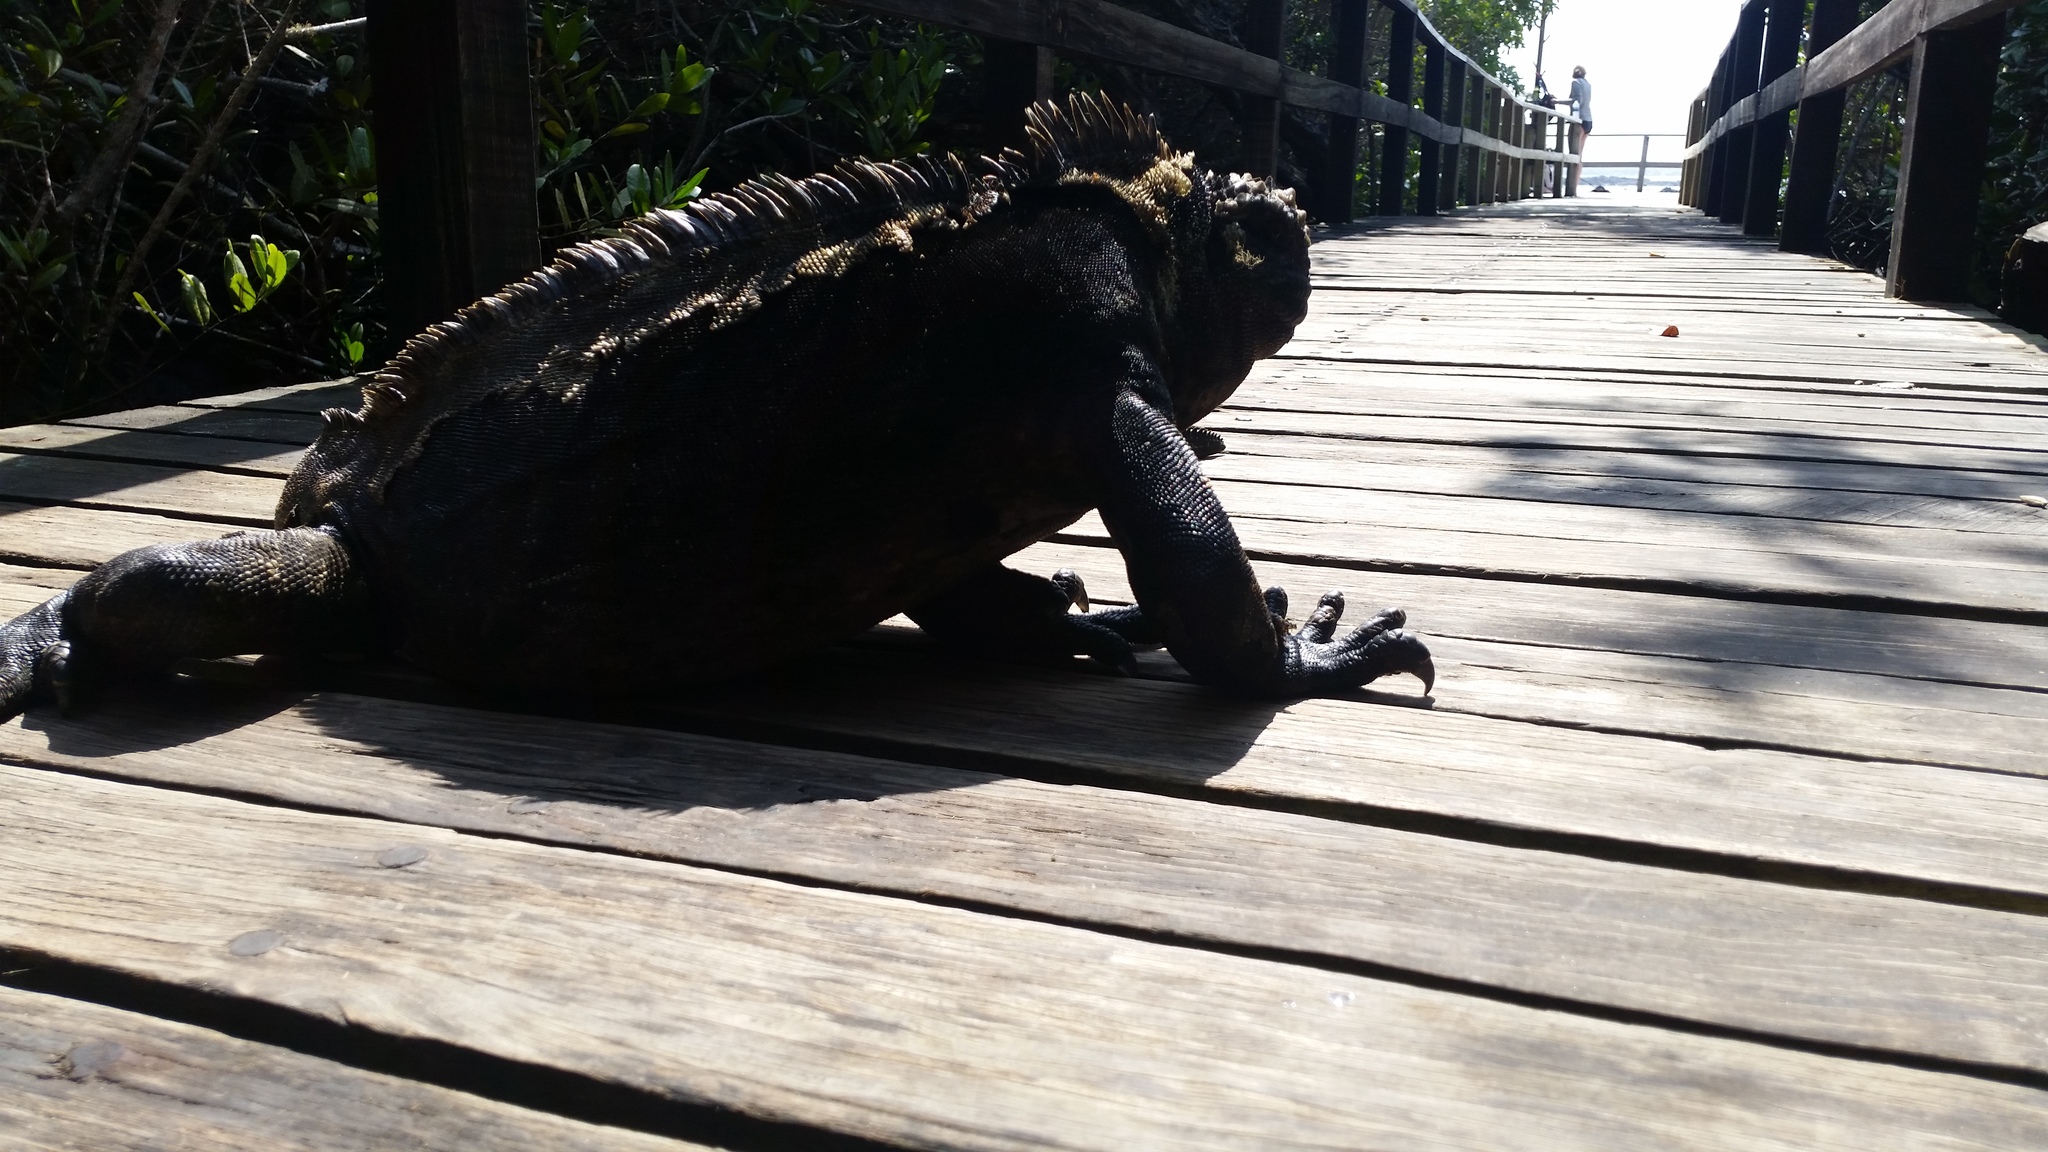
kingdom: Animalia
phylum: Chordata
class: Squamata
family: Iguanidae
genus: Amblyrhynchus
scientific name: Amblyrhynchus cristatus
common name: Marine iguana
